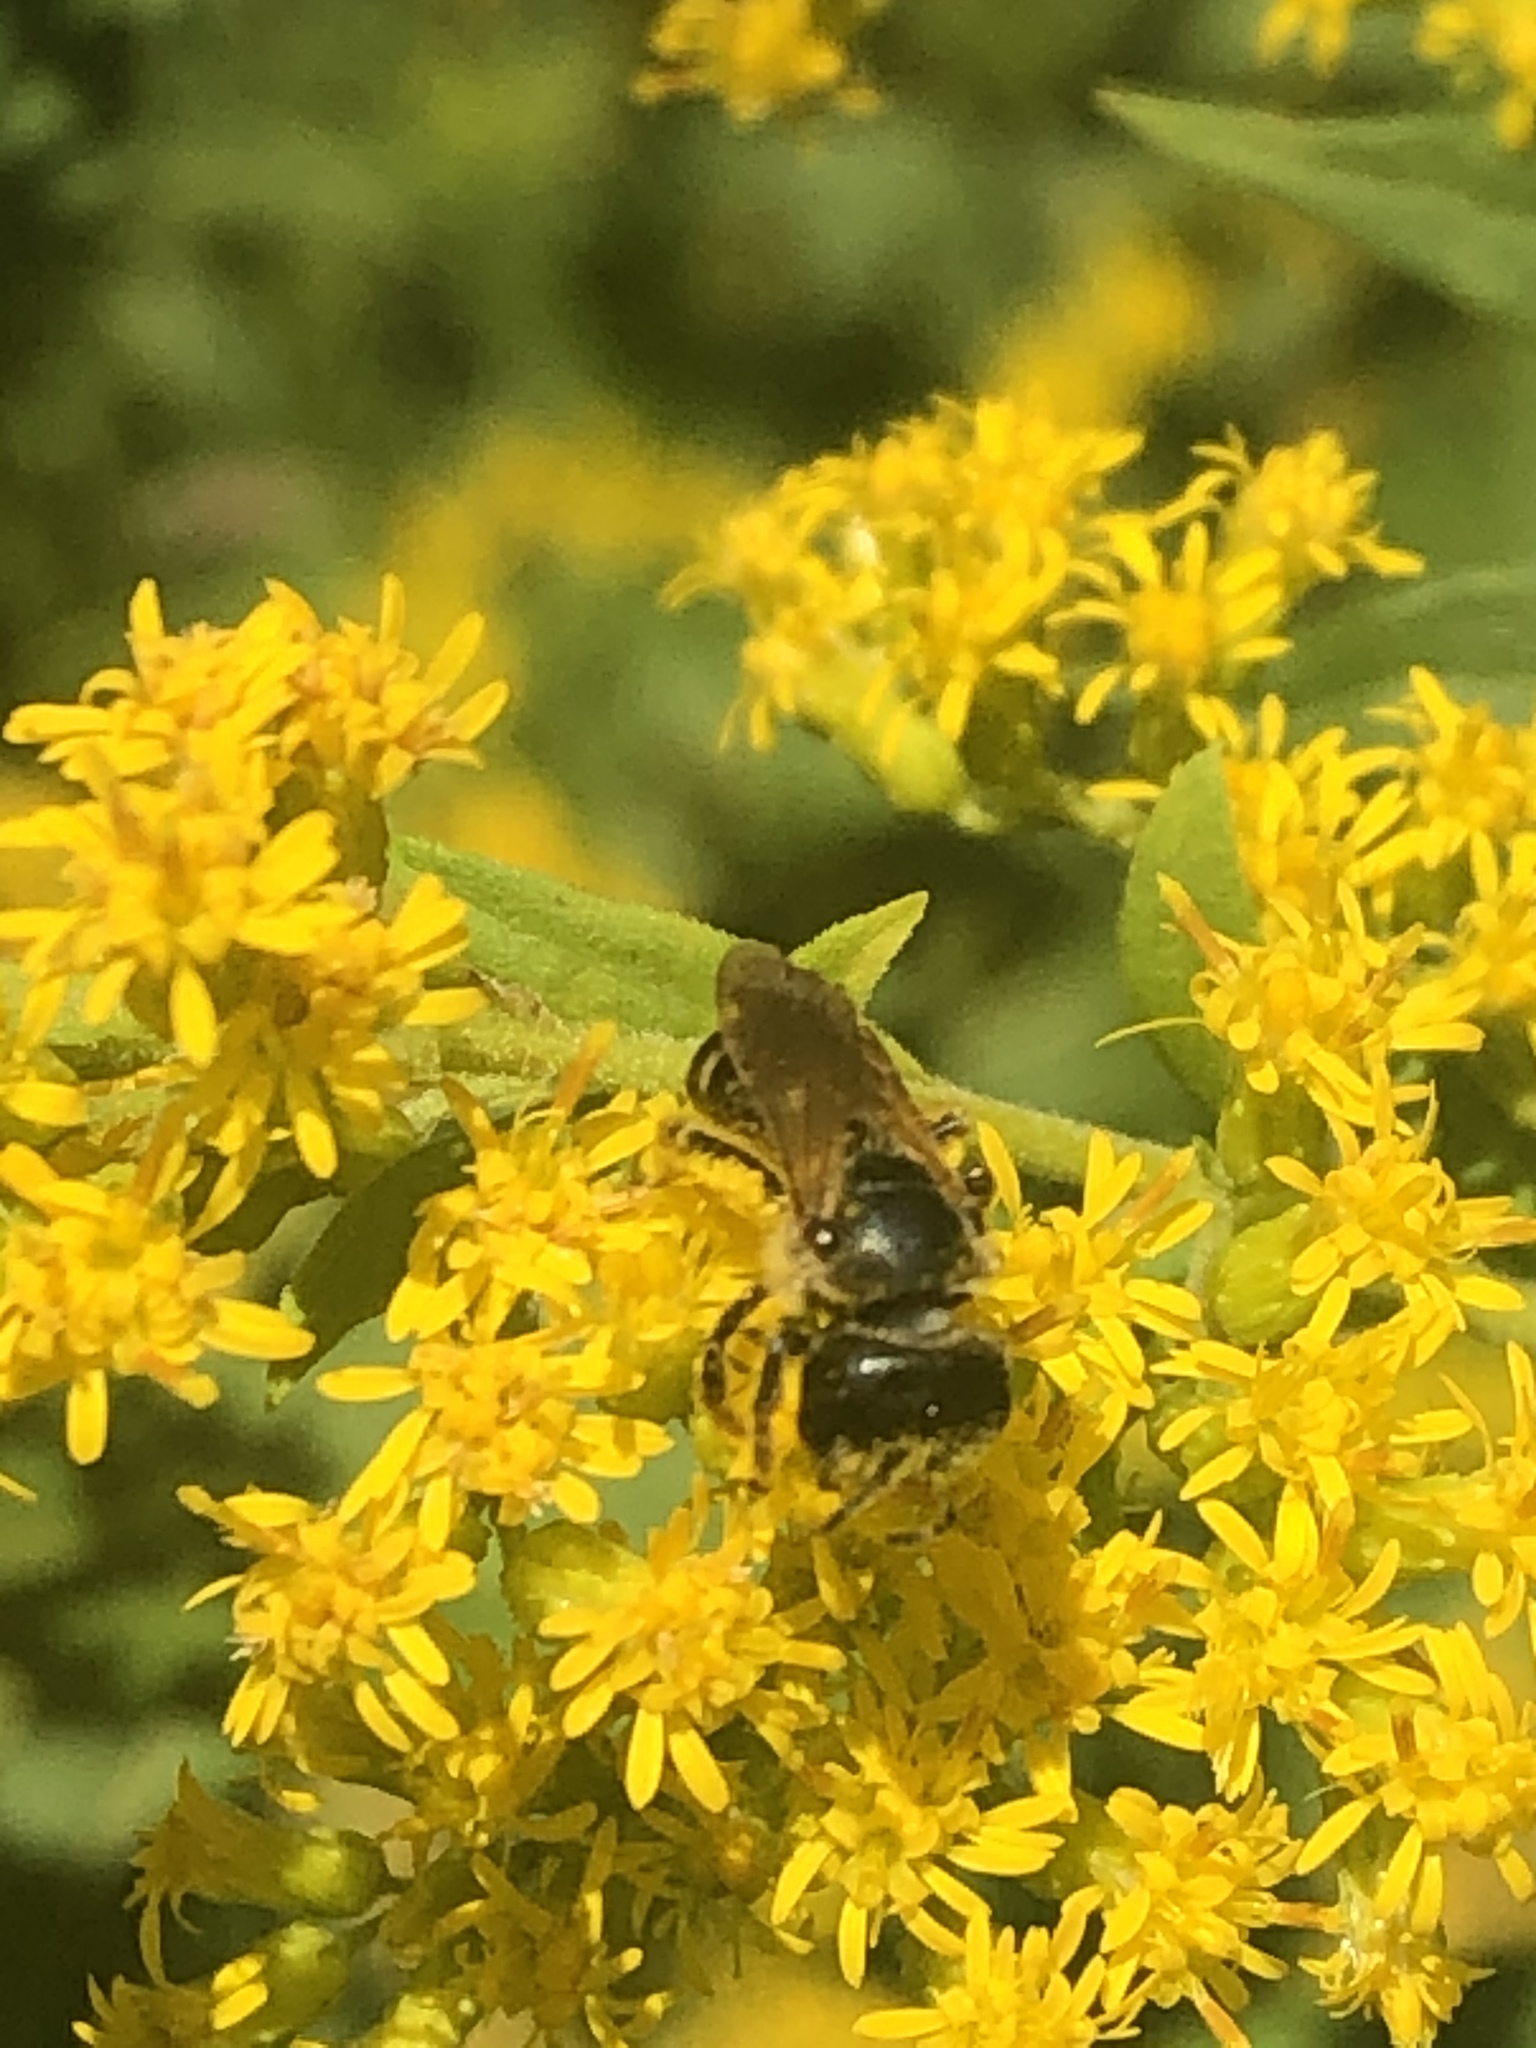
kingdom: Animalia
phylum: Arthropoda
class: Insecta
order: Hymenoptera
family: Halictidae
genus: Halictus
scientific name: Halictus ligatus
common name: Ligated furrow bee
